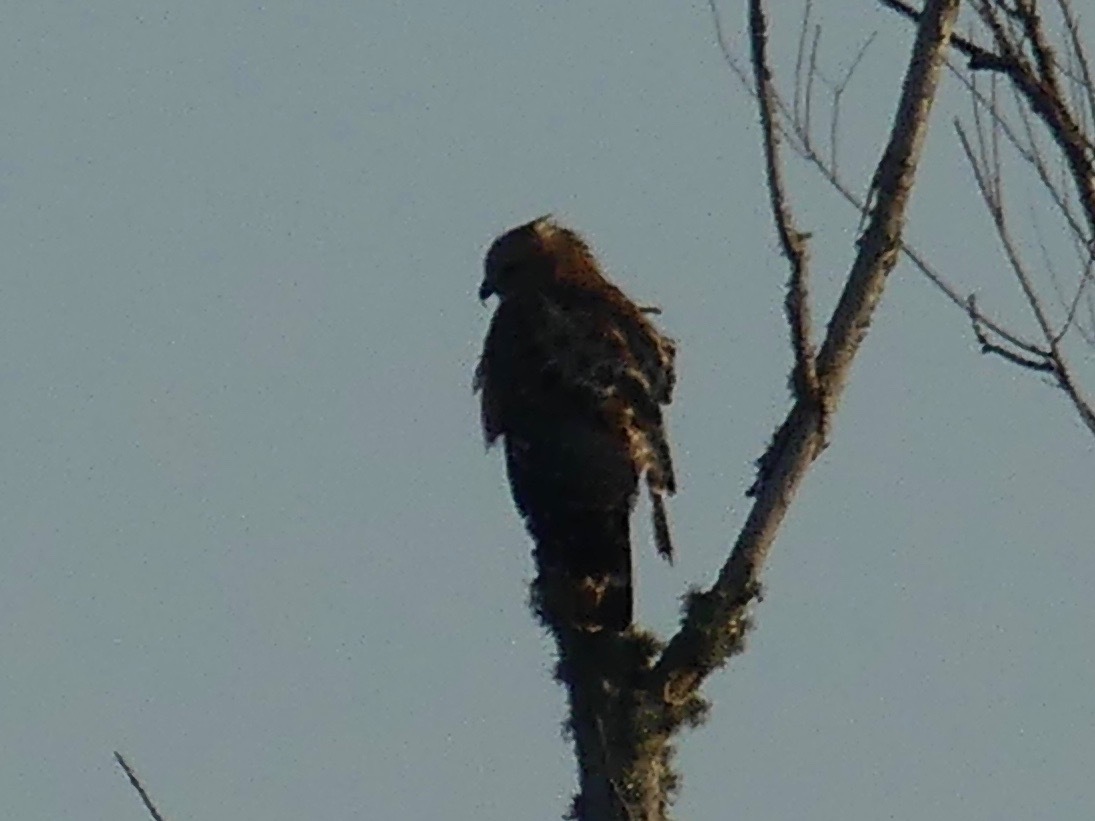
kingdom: Animalia
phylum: Chordata
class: Aves
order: Accipitriformes
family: Accipitridae
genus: Buteo
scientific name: Buteo lineatus
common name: Red-shouldered hawk
